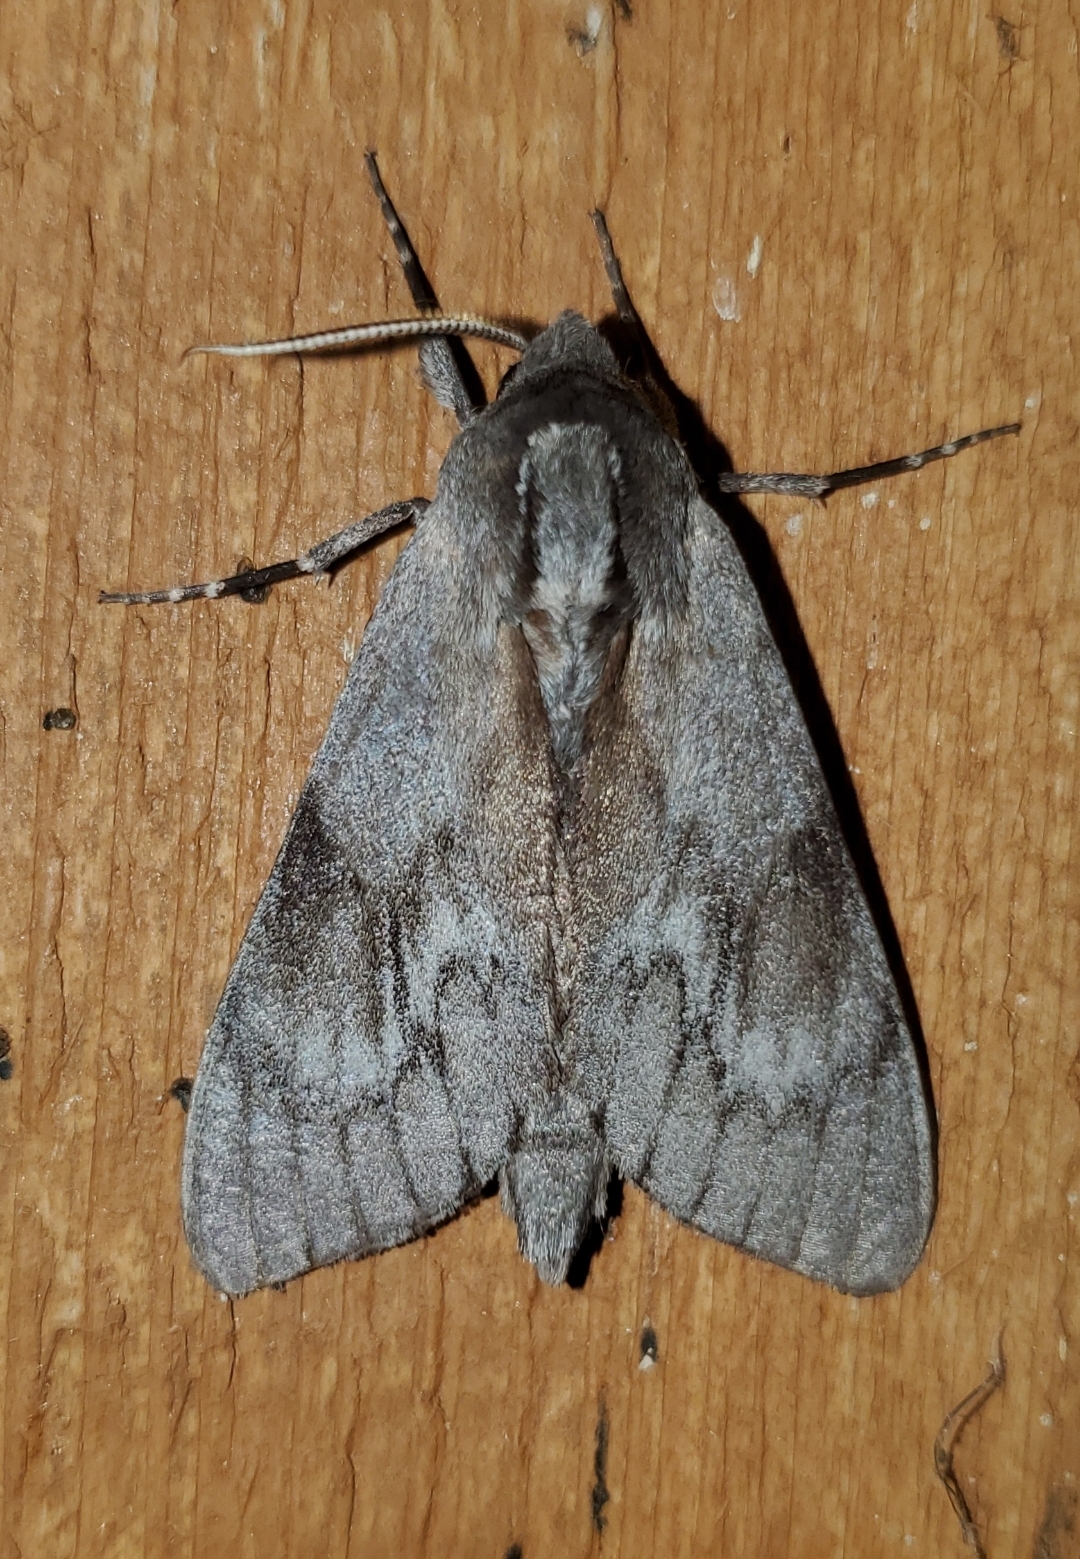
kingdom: Animalia
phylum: Arthropoda
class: Insecta
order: Lepidoptera
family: Sphingidae
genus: Lapara
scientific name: Lapara coniferarum
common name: Southern pine sphinx
